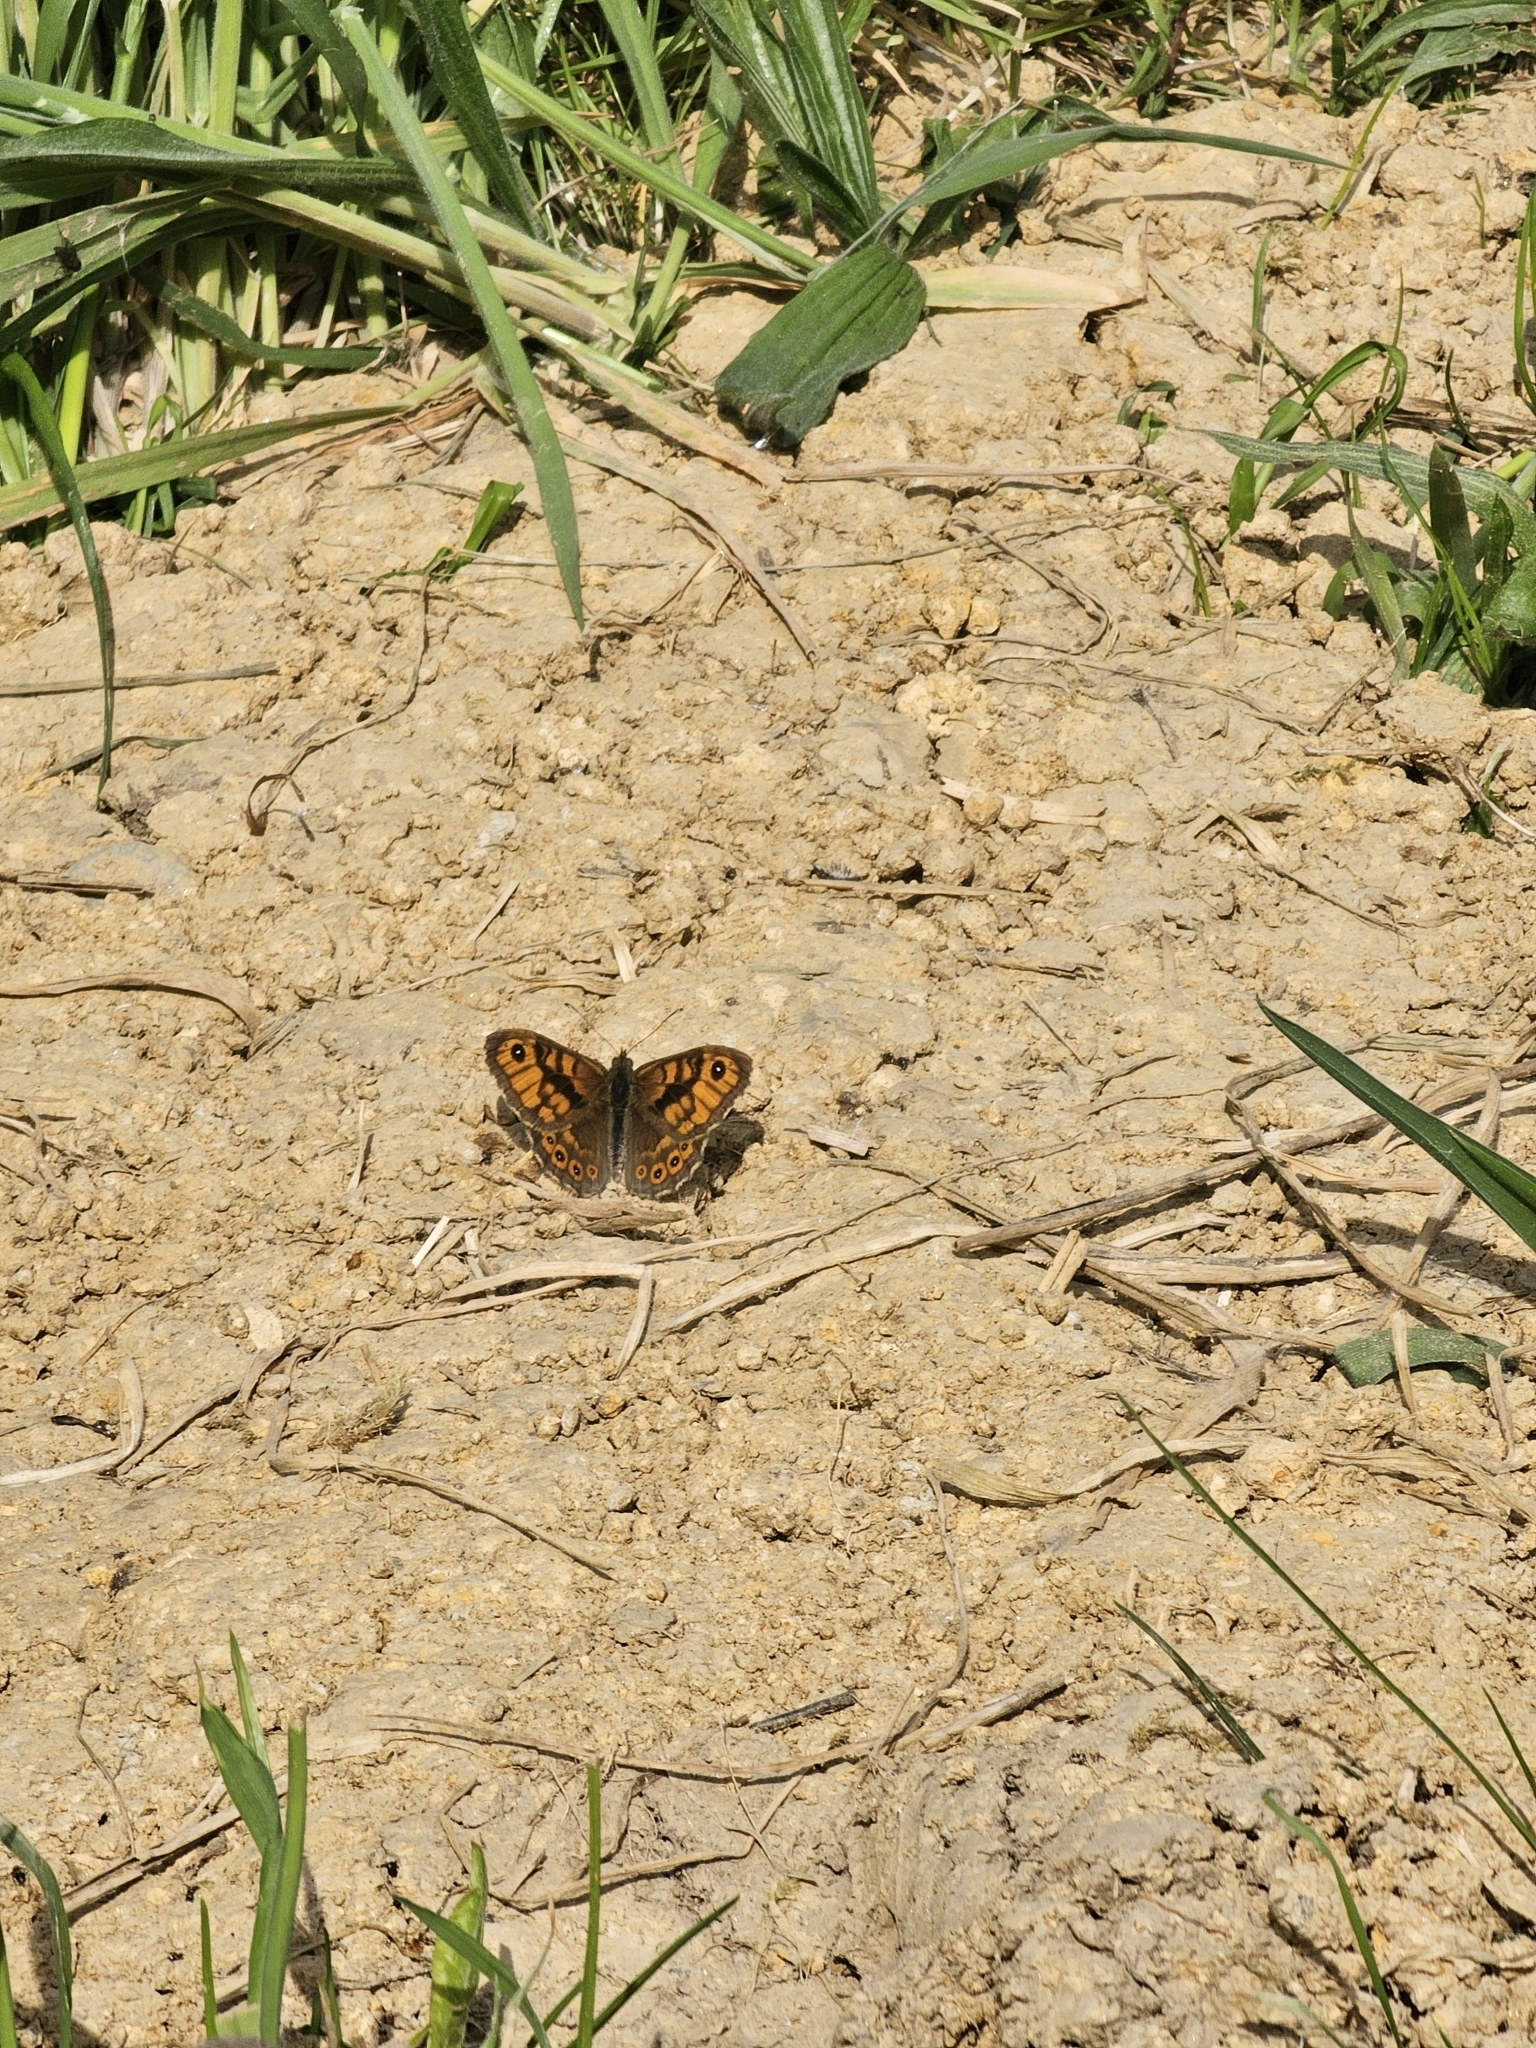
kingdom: Animalia
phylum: Arthropoda
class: Insecta
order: Lepidoptera
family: Nymphalidae
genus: Pararge
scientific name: Pararge Lasiommata megera
